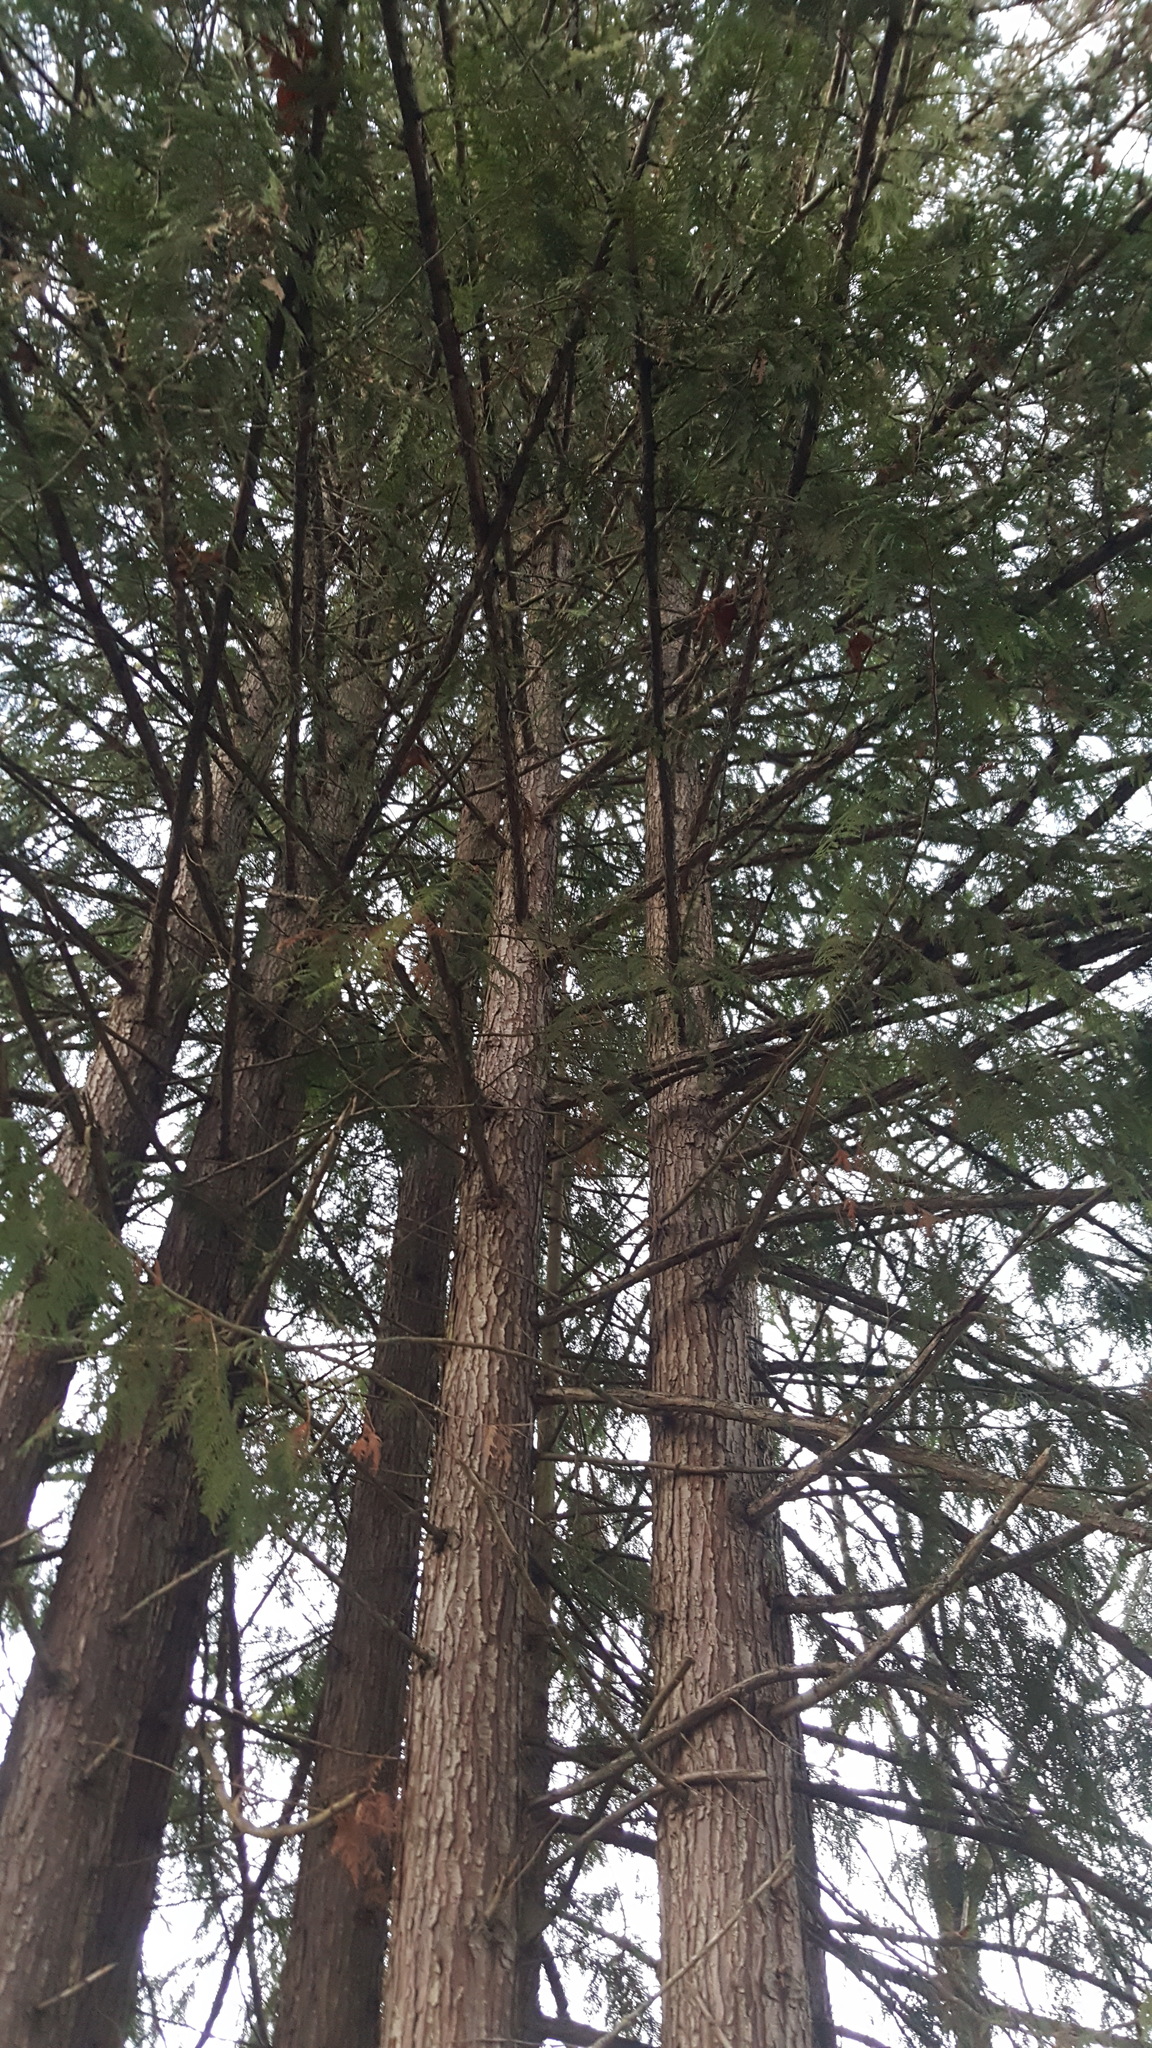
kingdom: Plantae
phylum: Tracheophyta
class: Pinopsida
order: Pinales
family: Cupressaceae
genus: Thuja
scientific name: Thuja plicata
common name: Western red-cedar
